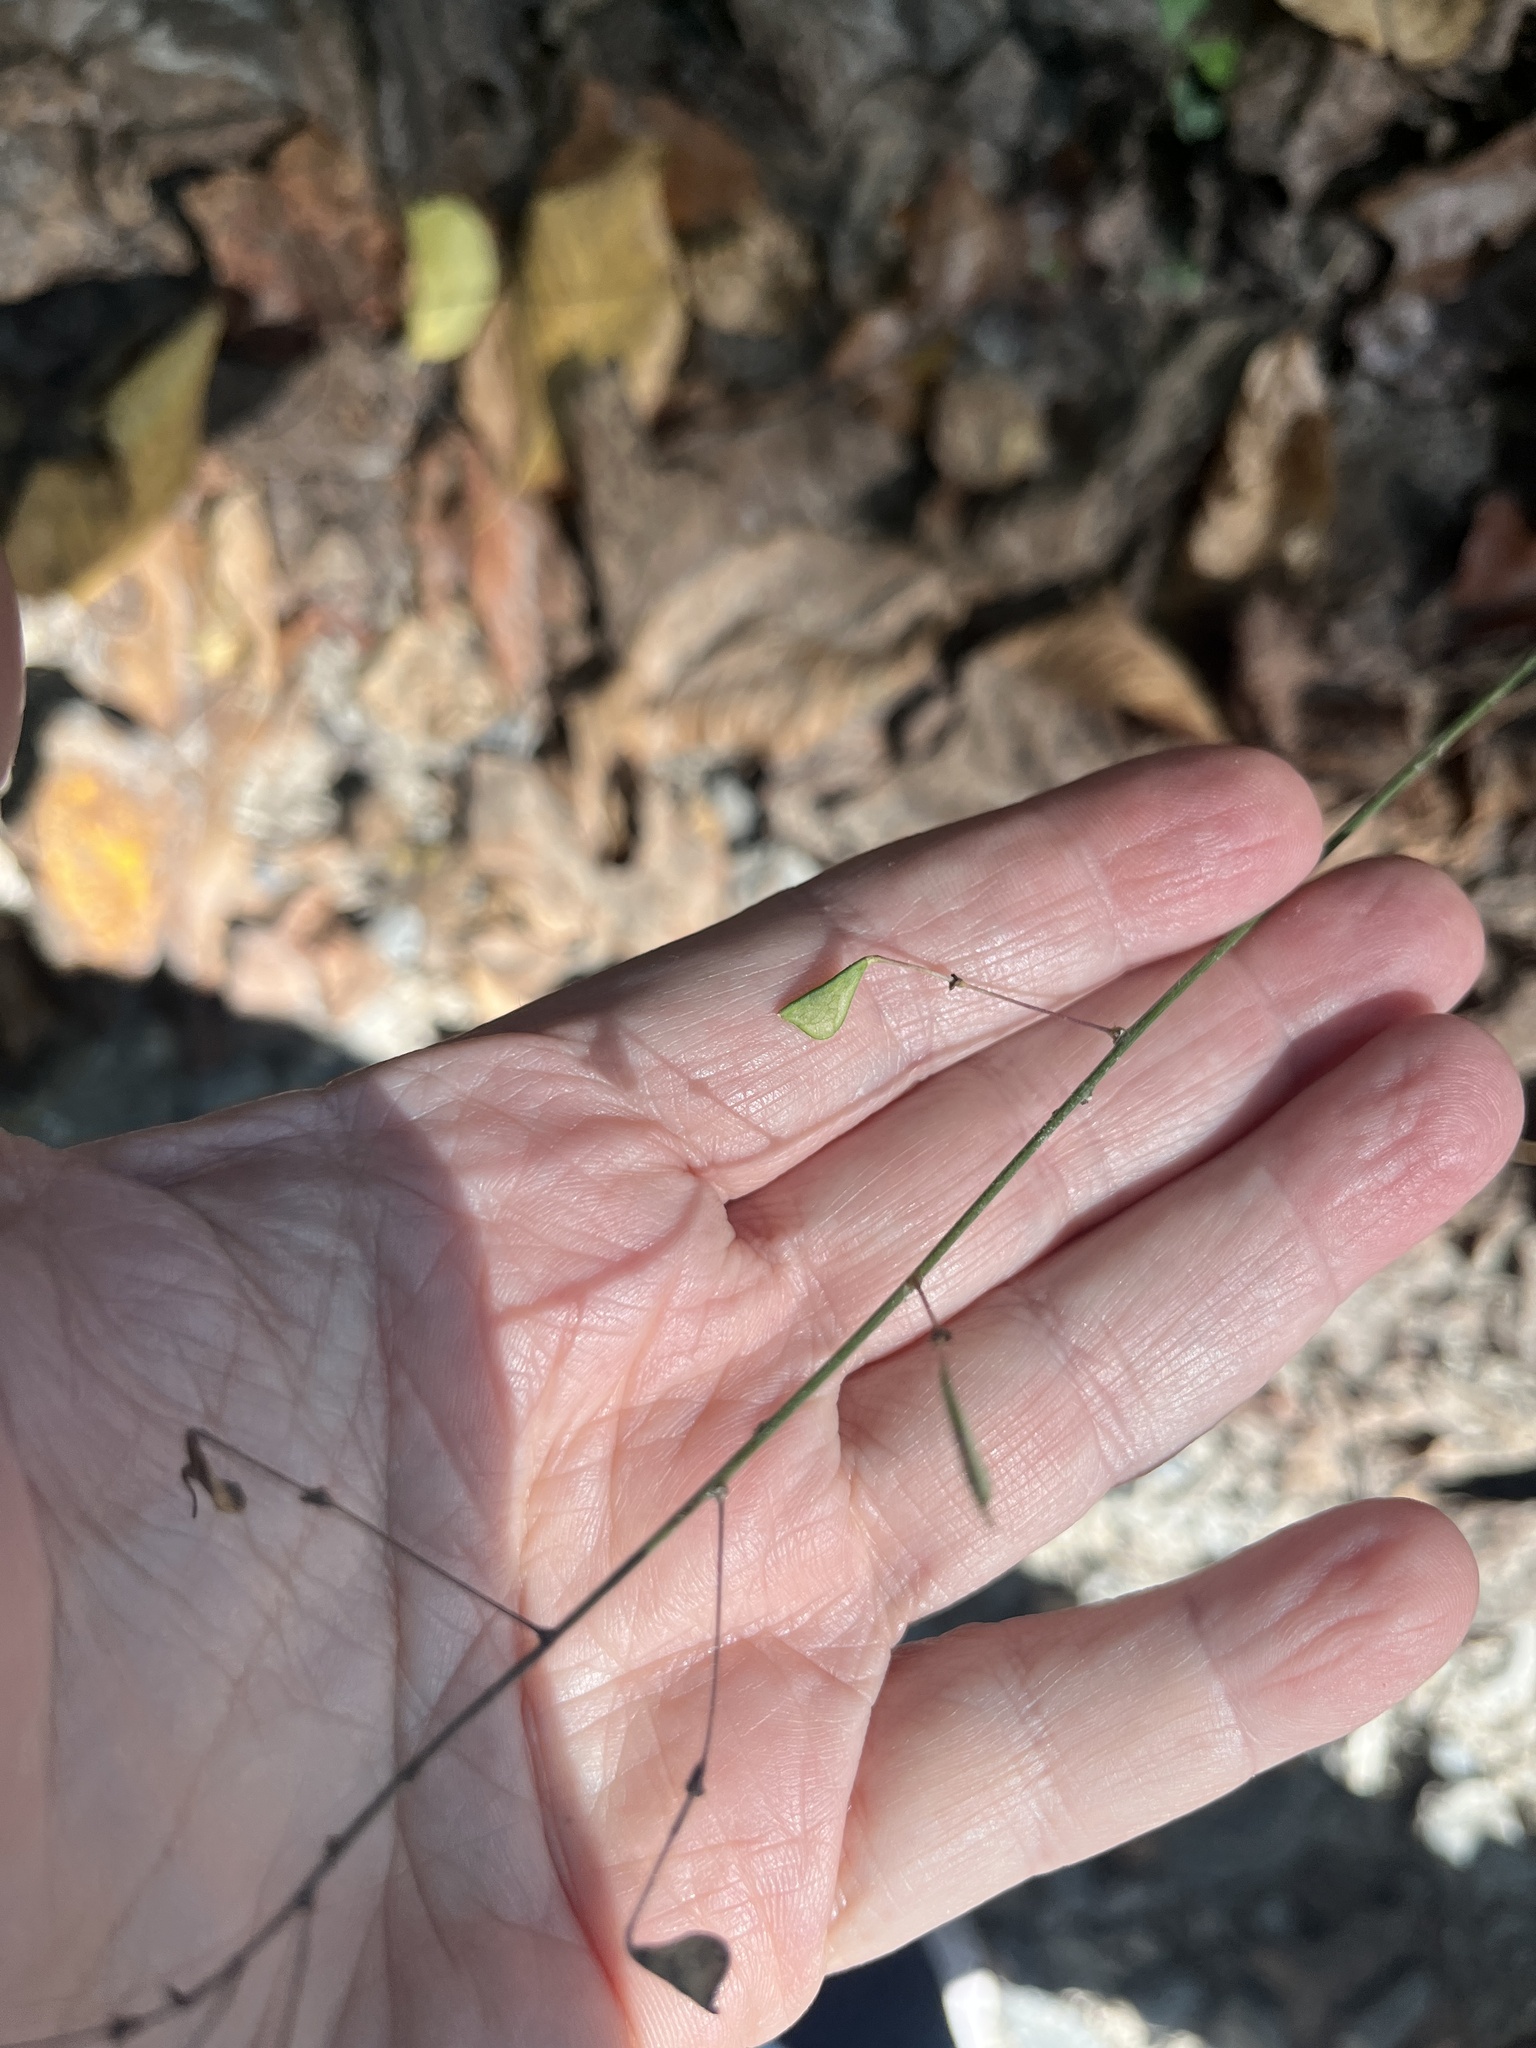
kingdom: Plantae
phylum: Tracheophyta
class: Magnoliopsida
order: Fabales
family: Fabaceae
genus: Hylodesmum
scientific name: Hylodesmum nudiflorum
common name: Bare-stemmed tick-trefoil
